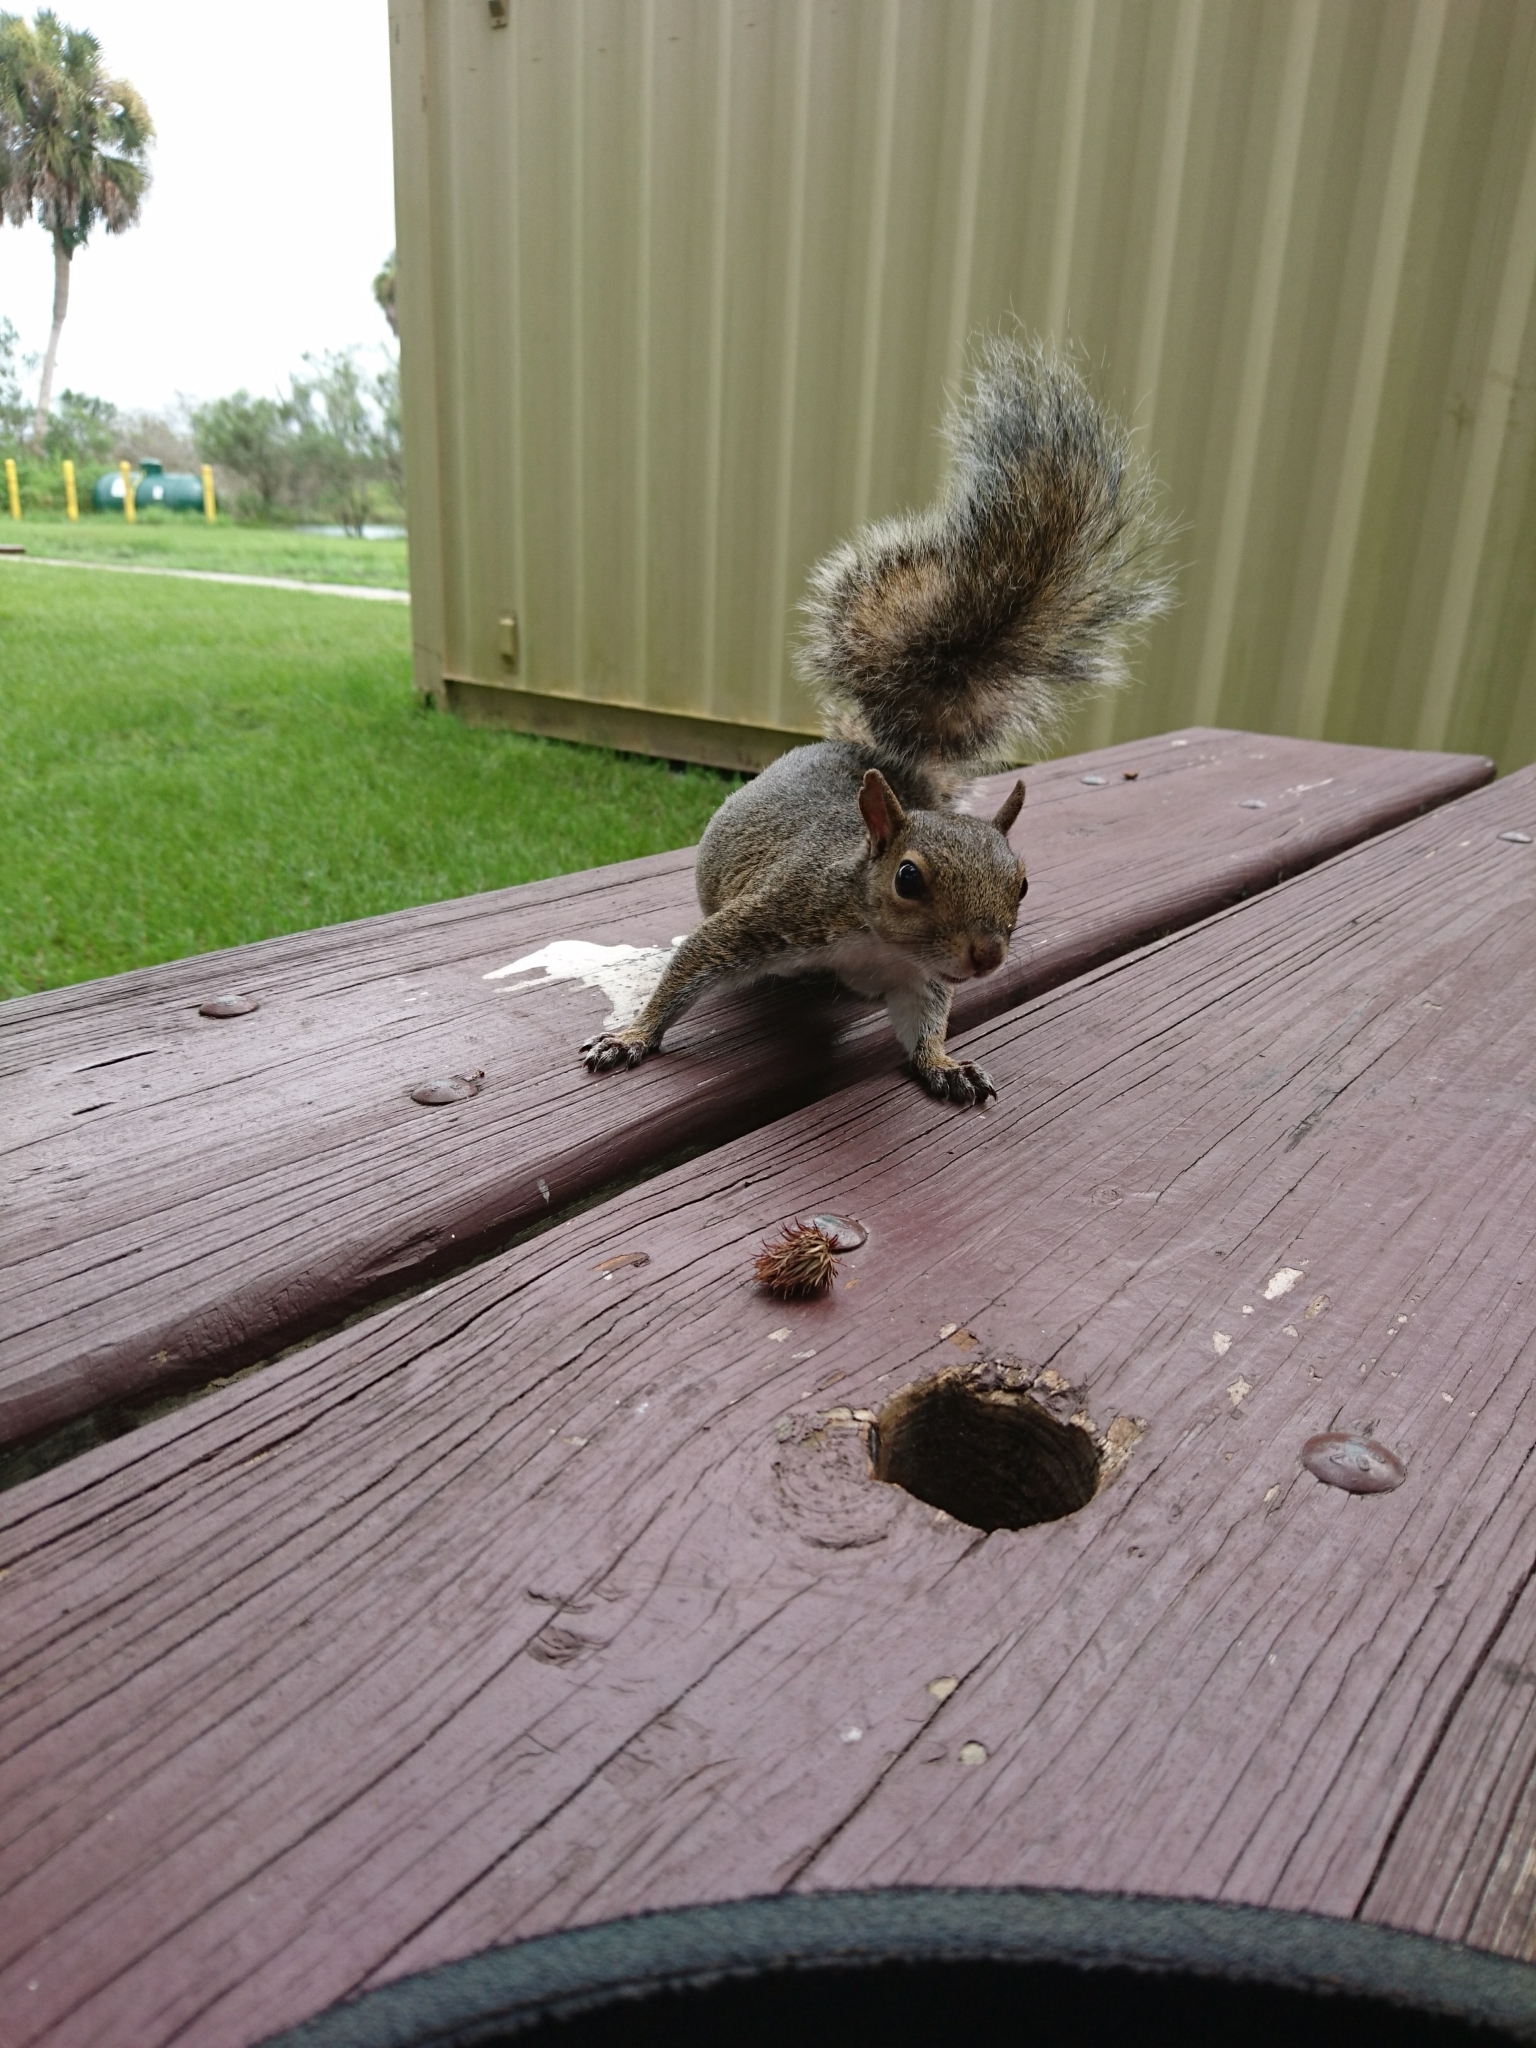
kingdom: Animalia
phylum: Chordata
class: Mammalia
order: Rodentia
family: Sciuridae
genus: Sciurus
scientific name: Sciurus carolinensis
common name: Eastern gray squirrel
